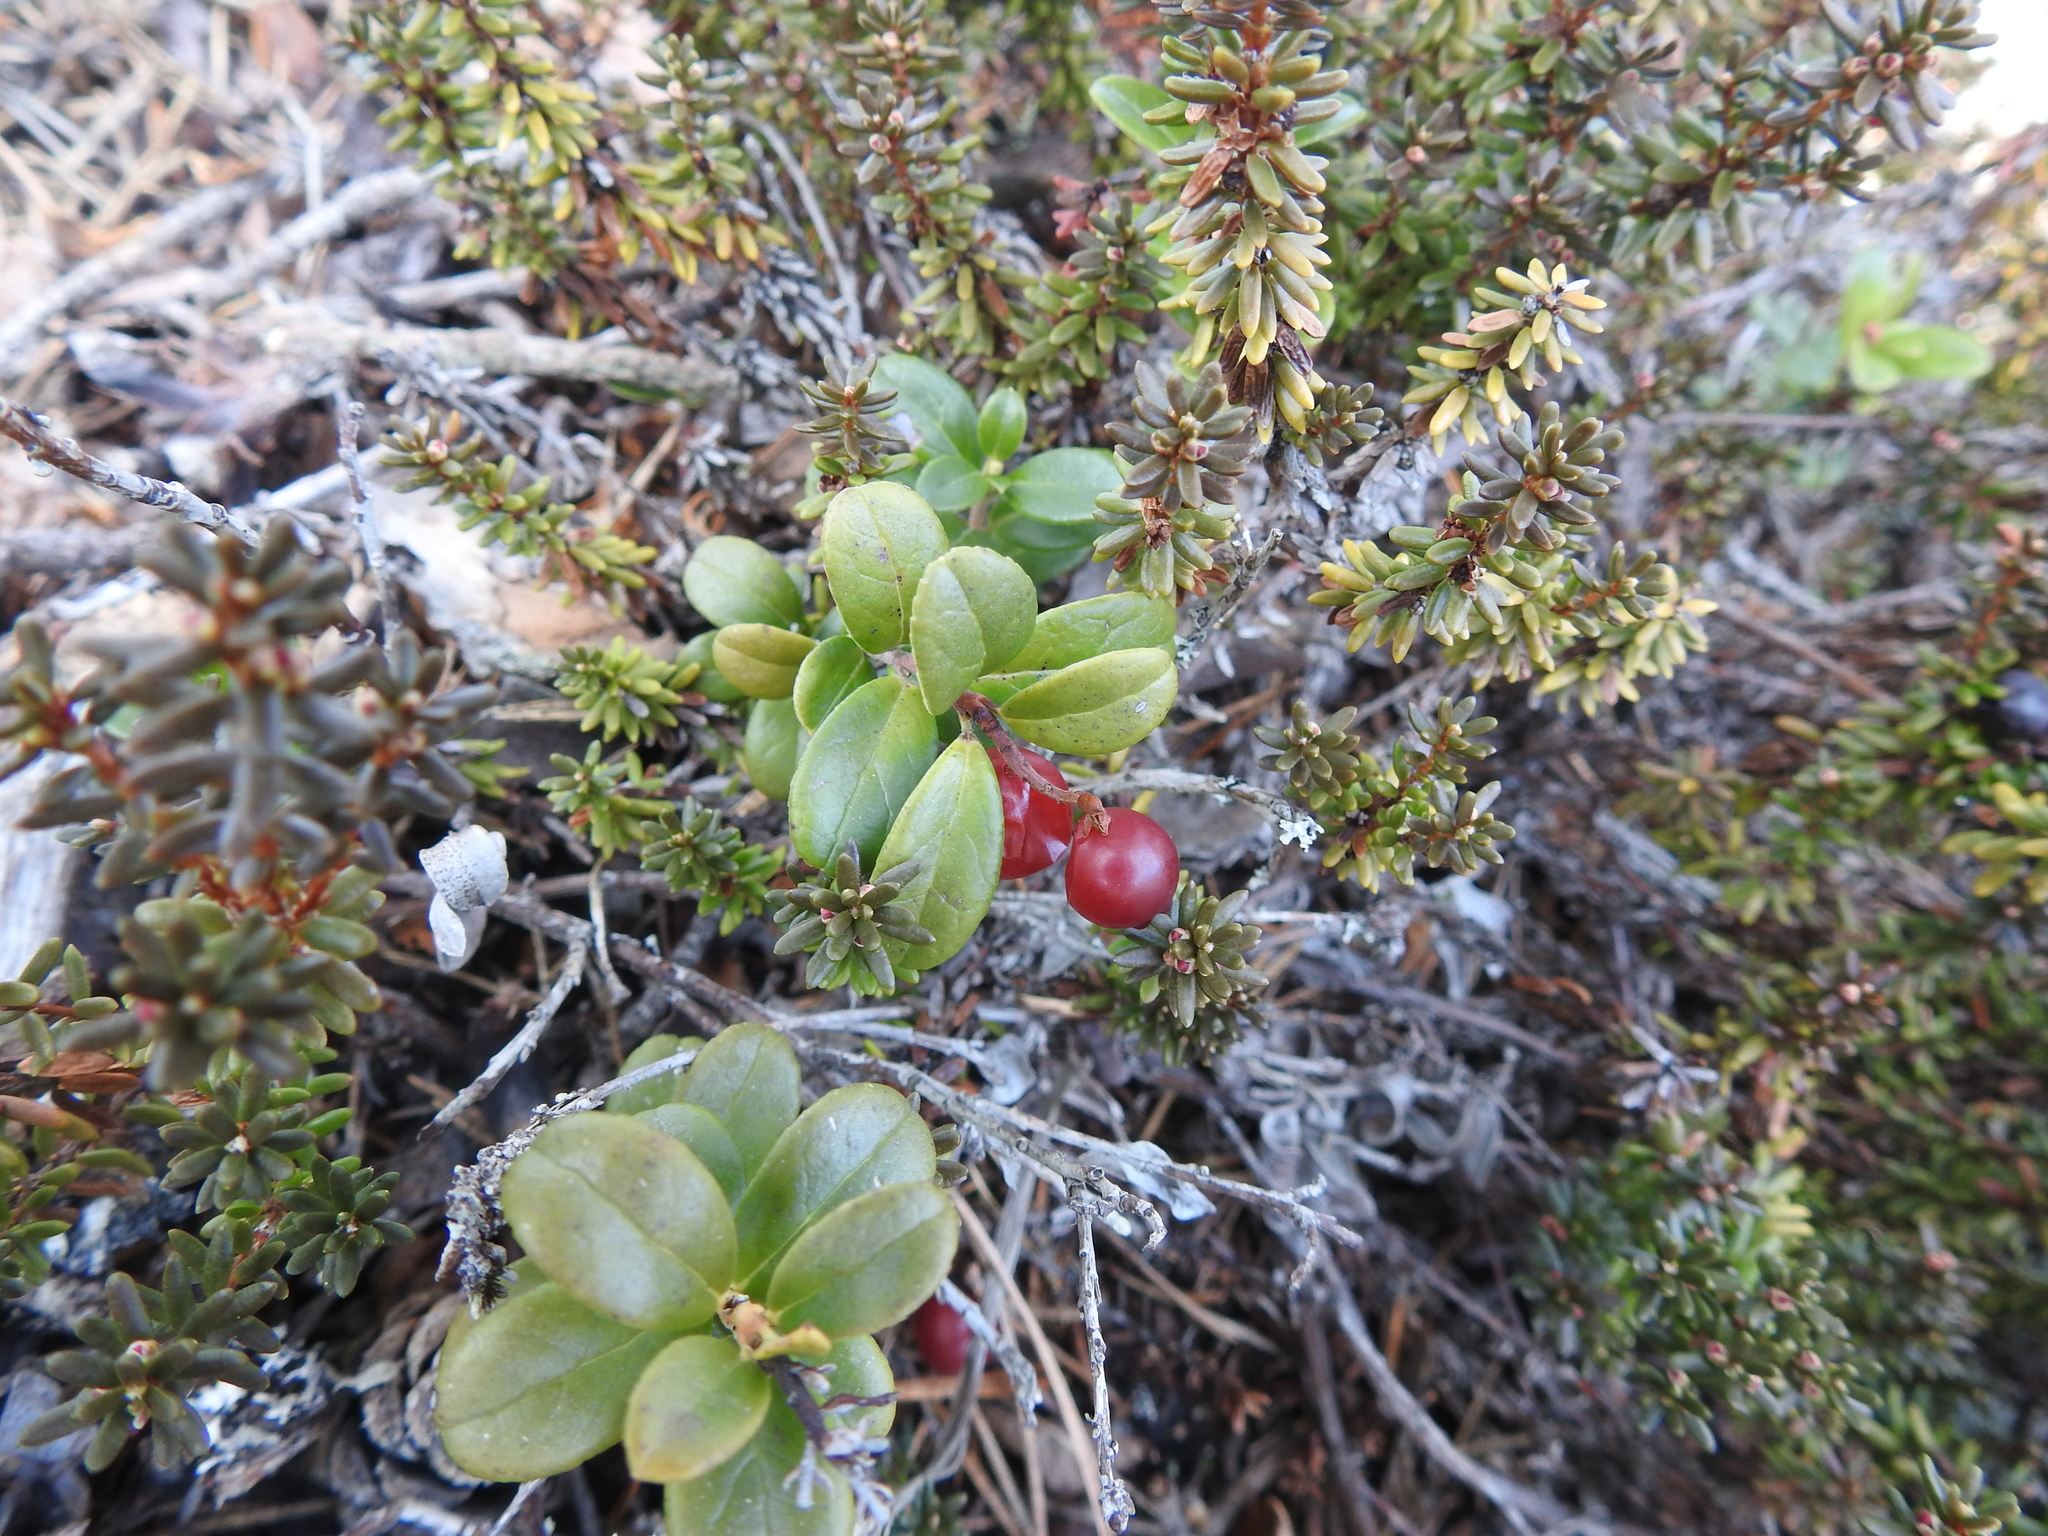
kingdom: Plantae
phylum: Tracheophyta
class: Magnoliopsida
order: Ericales
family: Ericaceae
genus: Vaccinium
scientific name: Vaccinium vitis-idaea
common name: Cowberry
